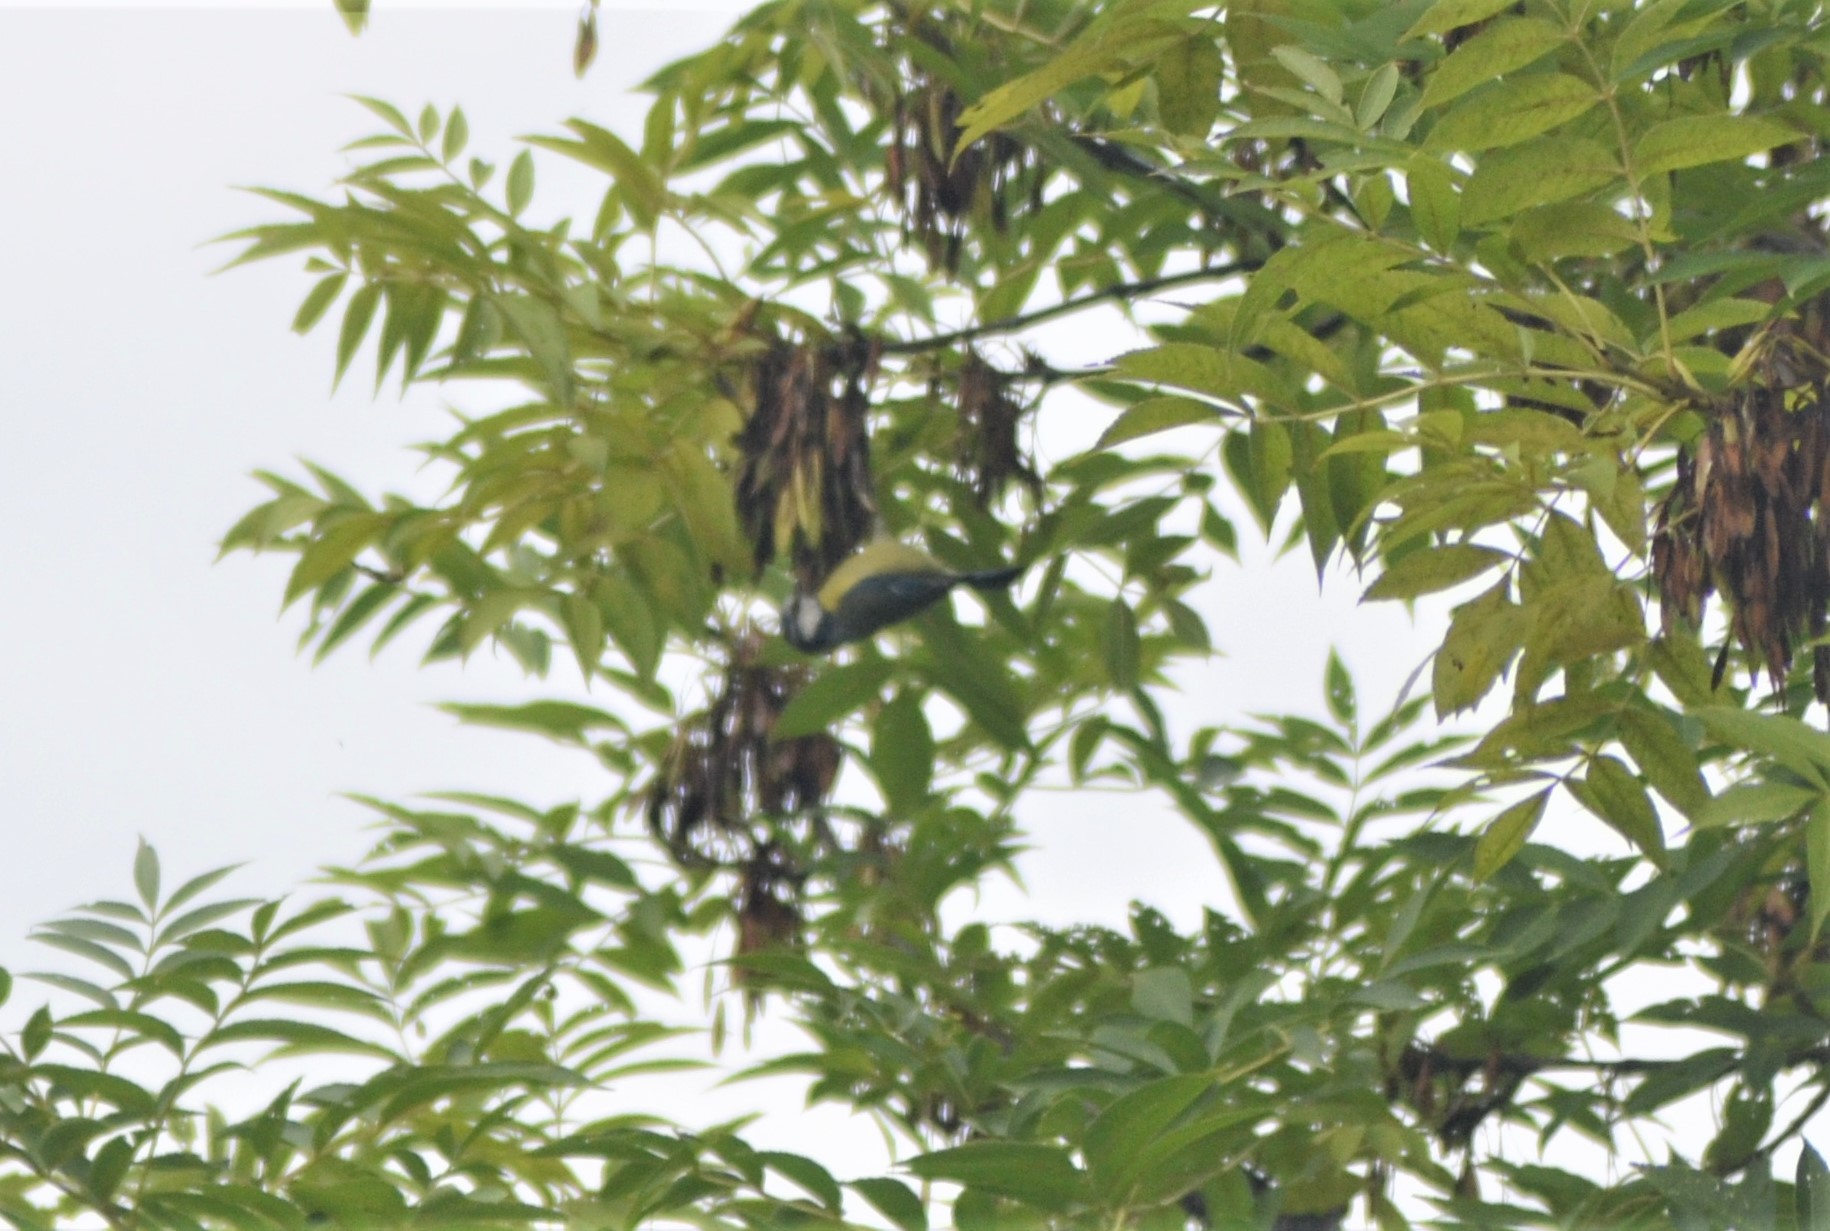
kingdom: Animalia
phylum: Chordata
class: Aves
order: Passeriformes
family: Paridae
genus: Cyanistes
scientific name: Cyanistes caeruleus
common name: Eurasian blue tit
